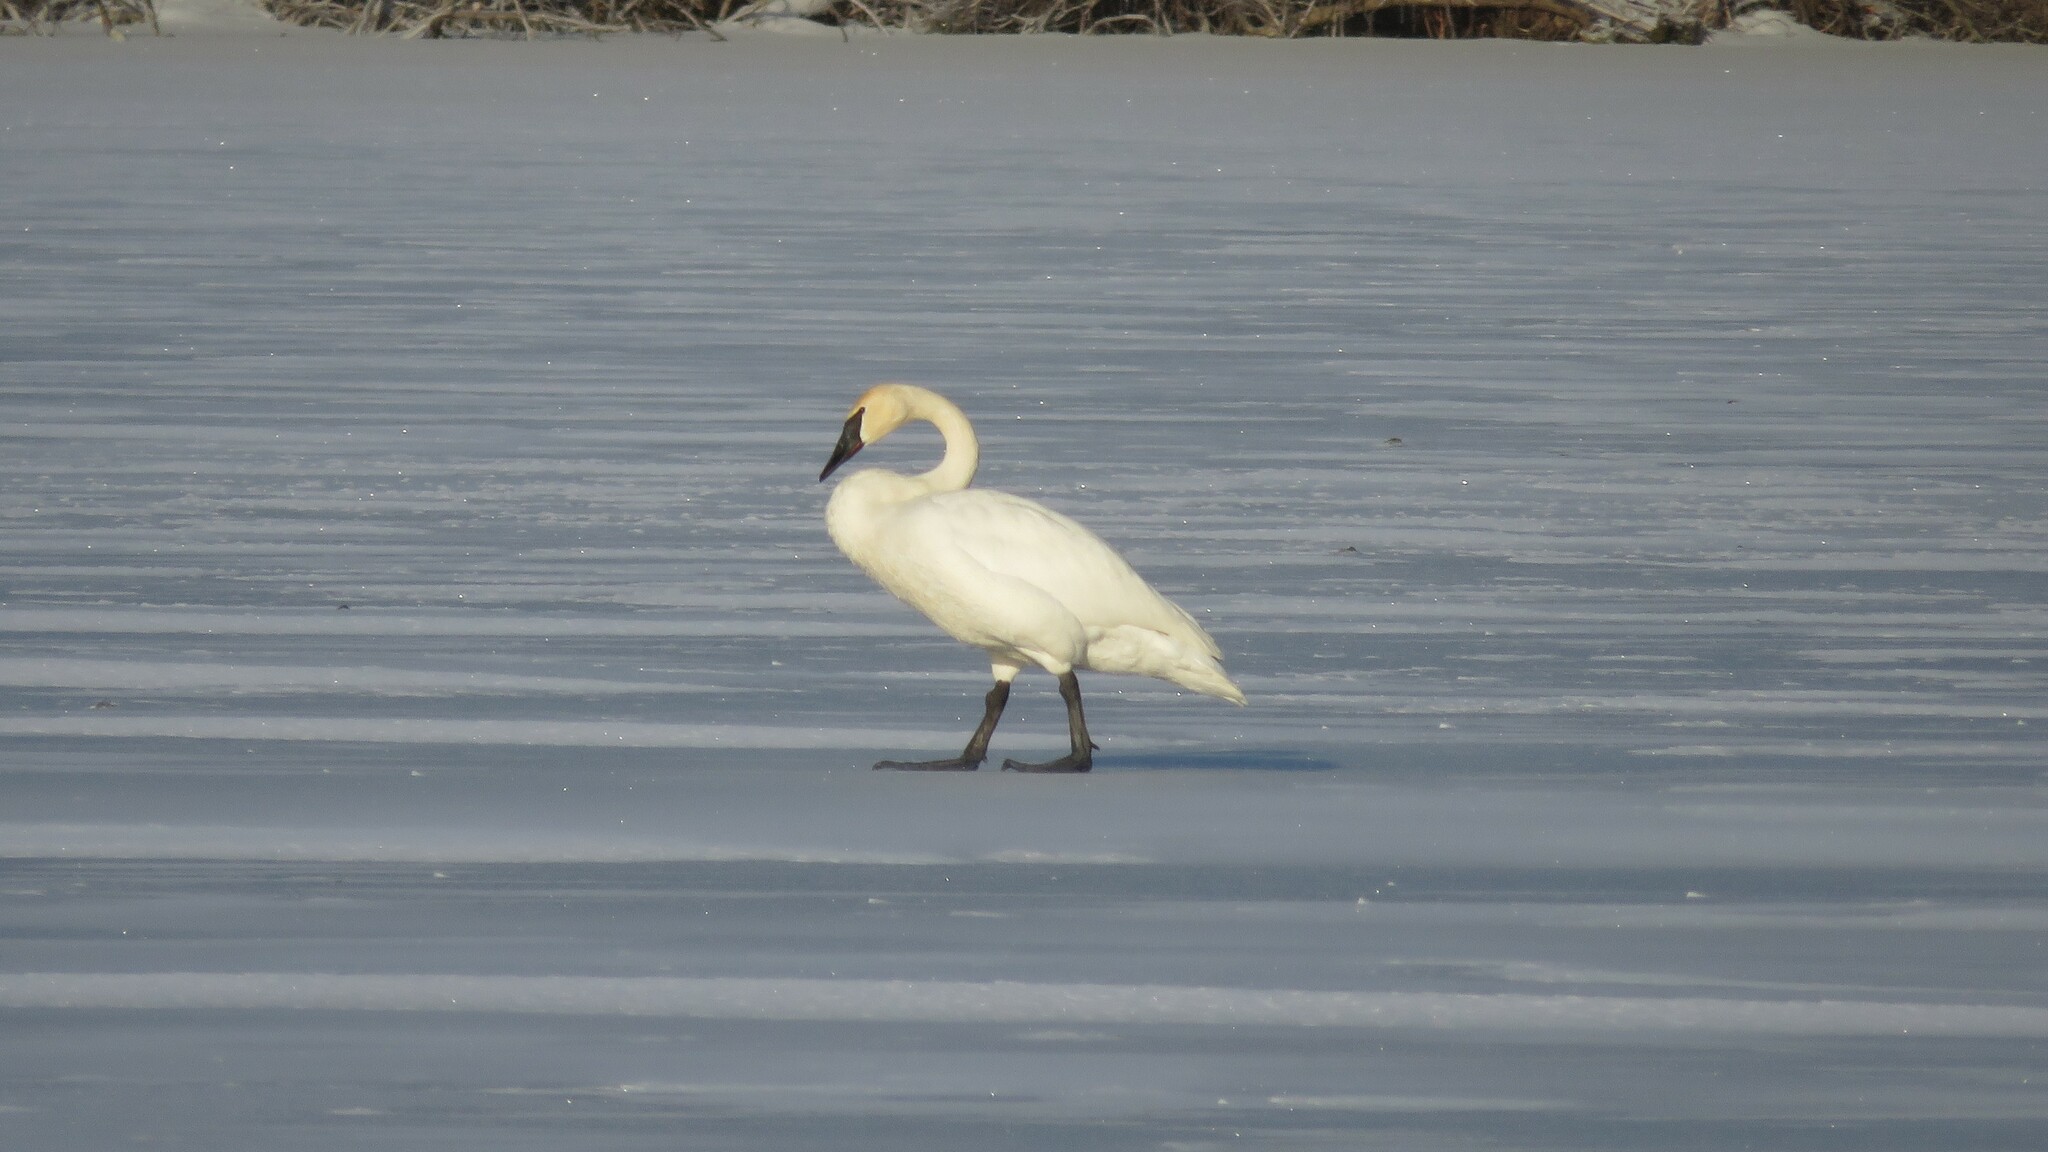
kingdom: Animalia
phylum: Chordata
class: Aves
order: Anseriformes
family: Anatidae
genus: Cygnus
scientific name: Cygnus buccinator
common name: Trumpeter swan
